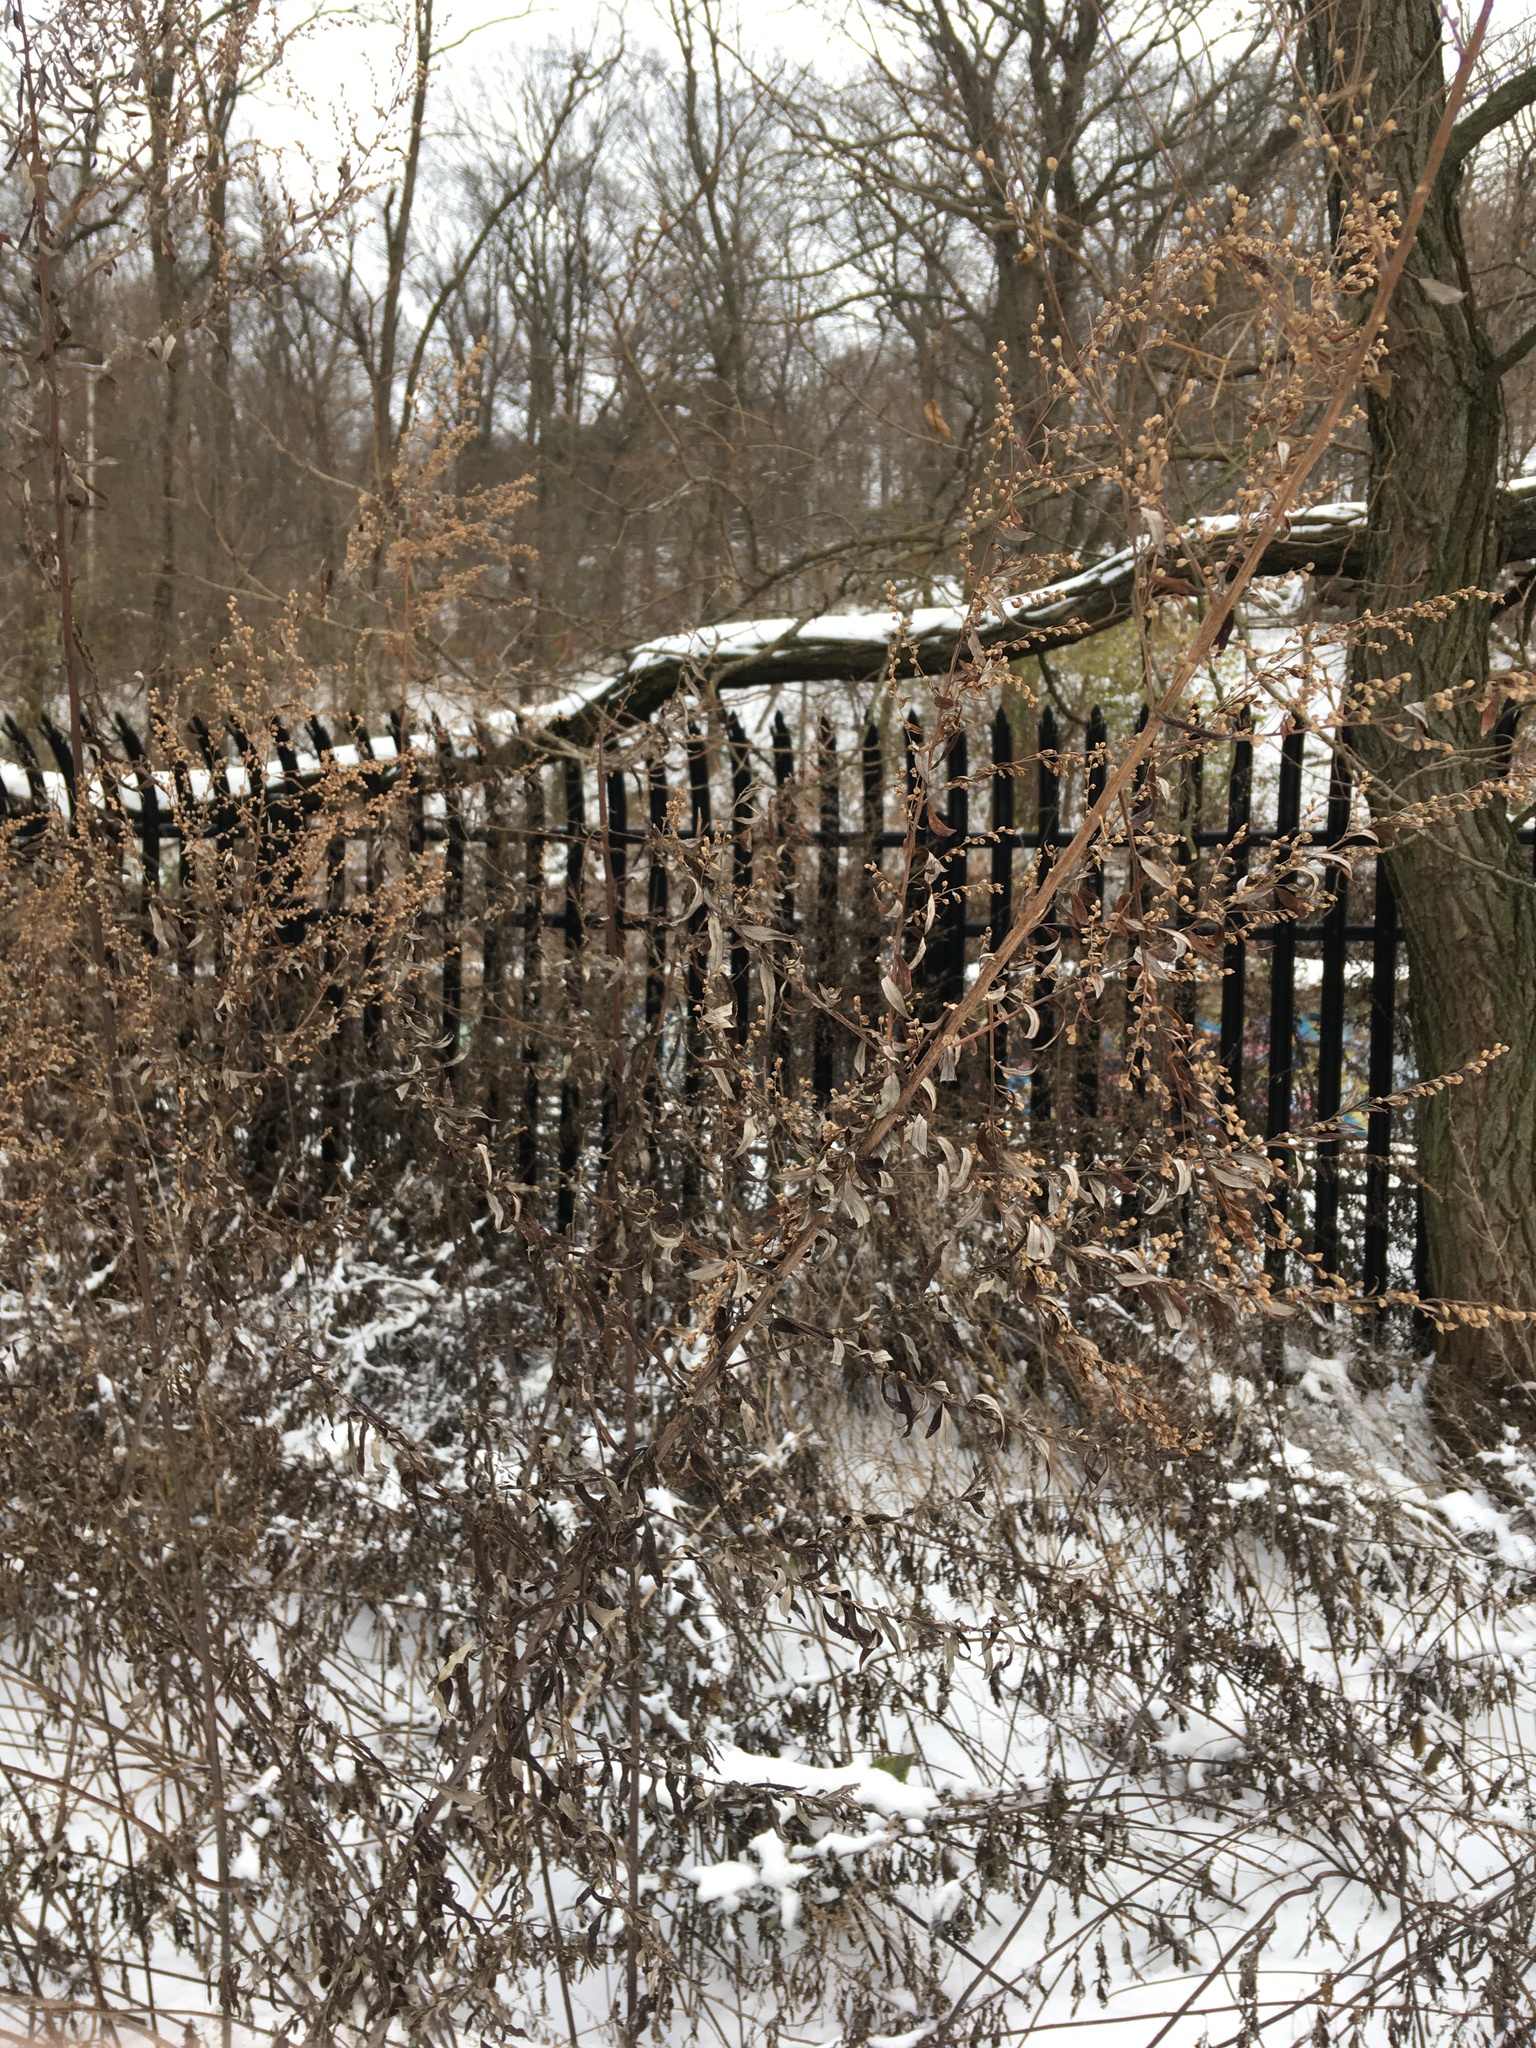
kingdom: Plantae
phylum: Tracheophyta
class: Magnoliopsida
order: Asterales
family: Asteraceae
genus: Artemisia
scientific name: Artemisia vulgaris
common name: Mugwort
